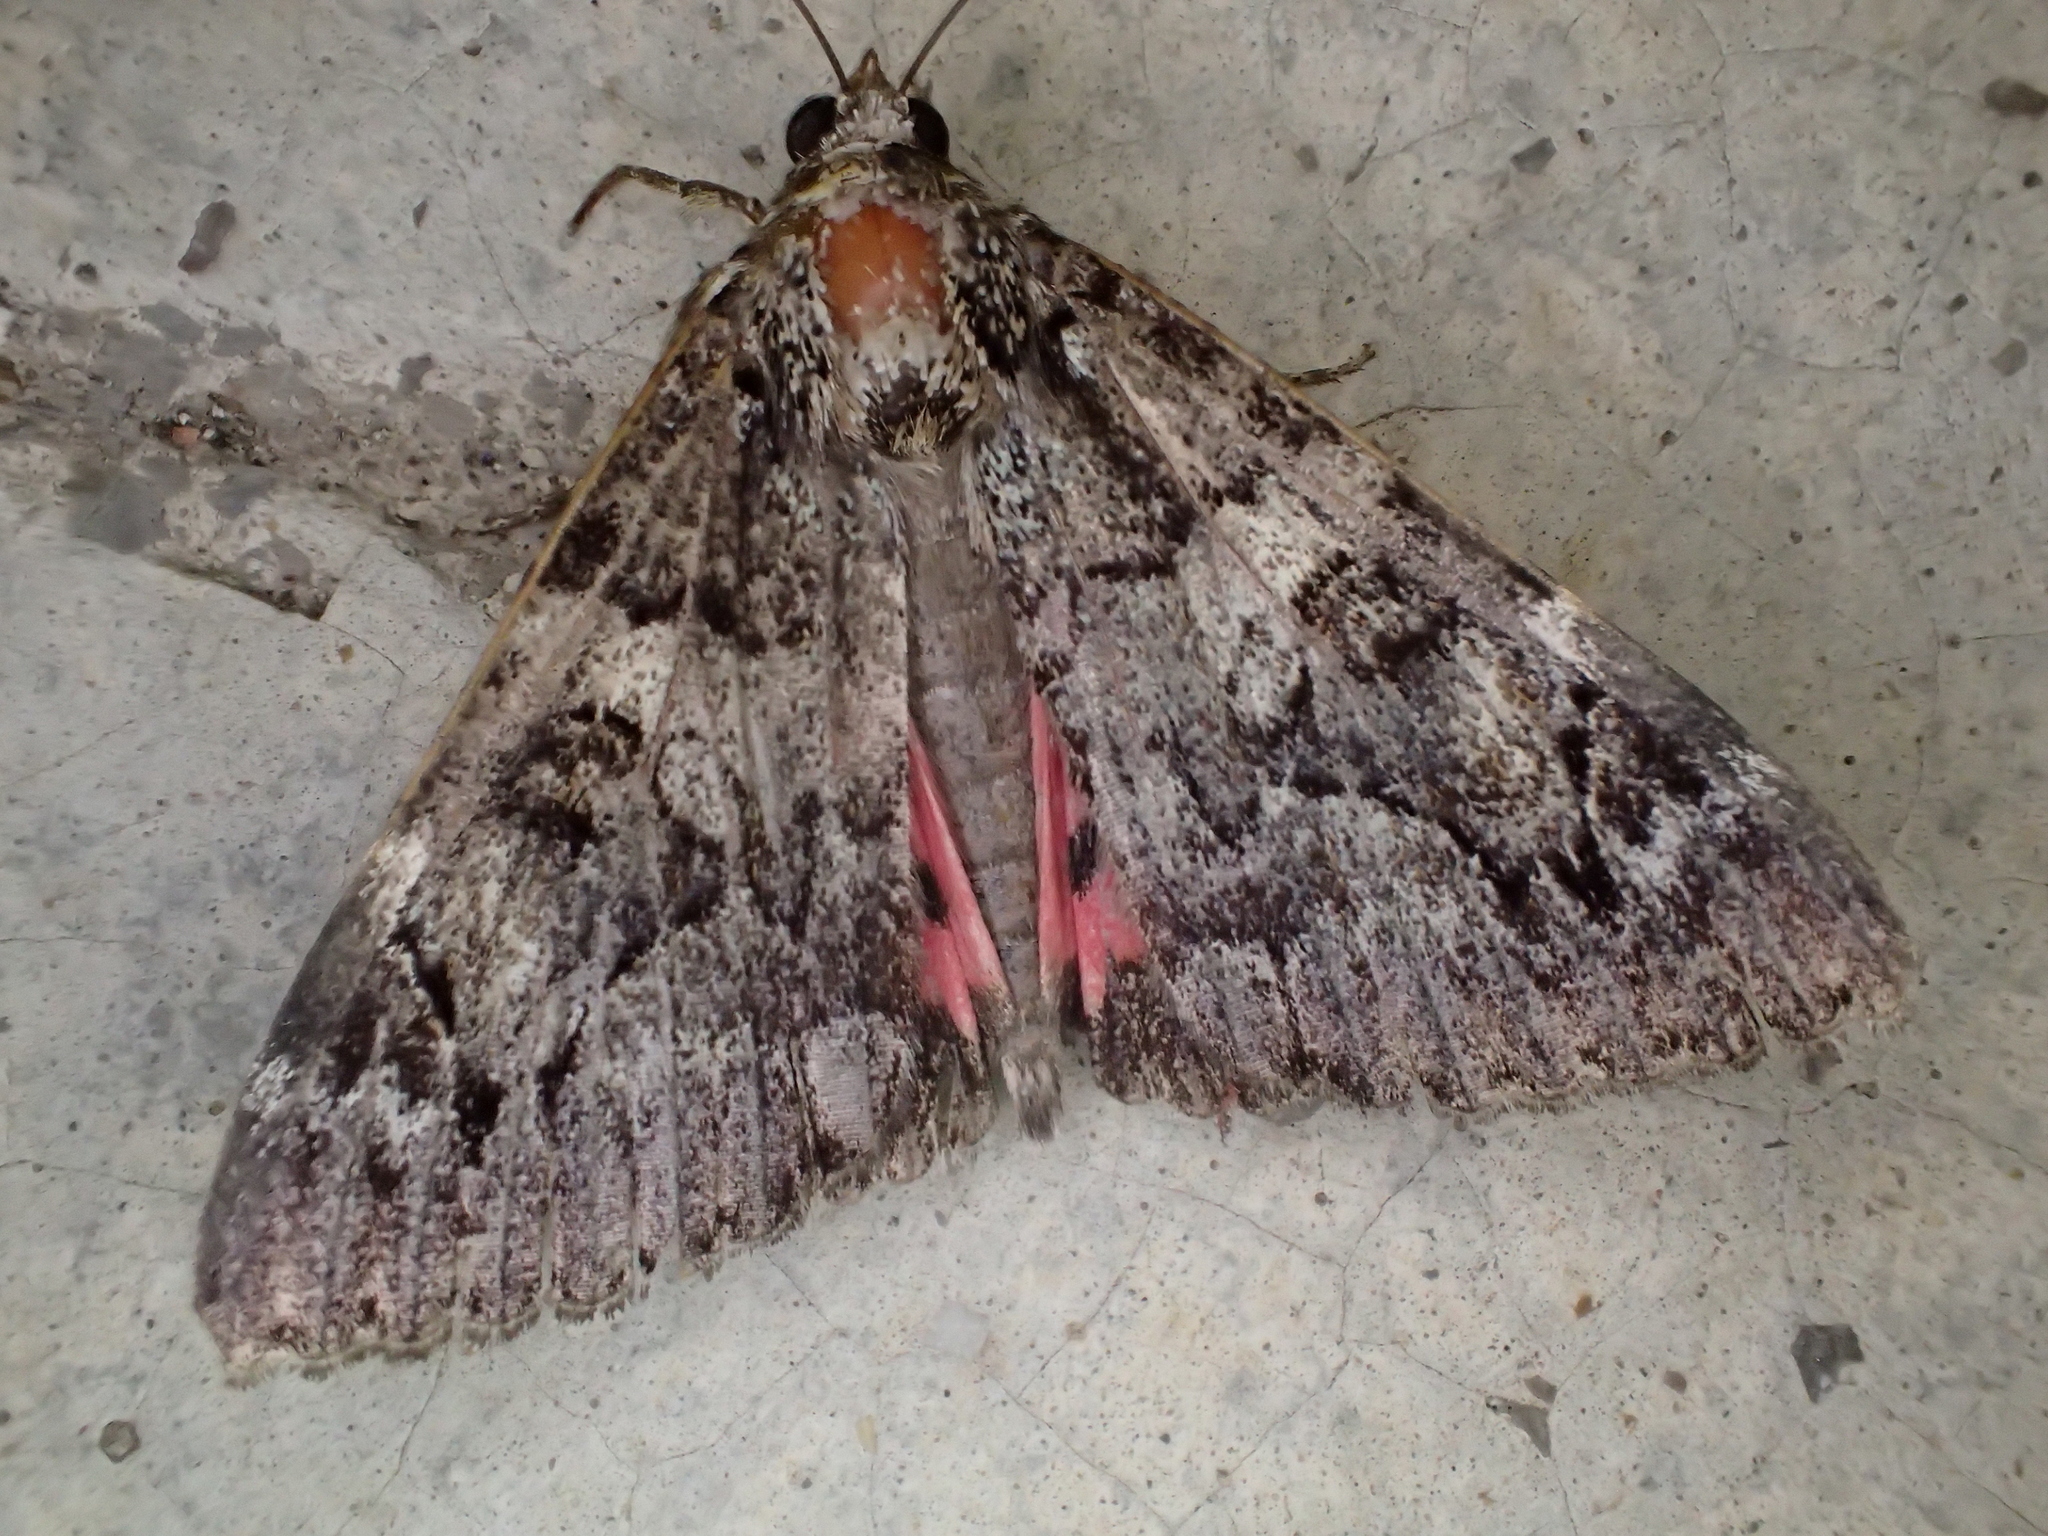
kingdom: Animalia
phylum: Arthropoda
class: Insecta
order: Lepidoptera
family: Erebidae
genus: Catocala
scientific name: Catocala coniuncta
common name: Minsmere crimson underwing
